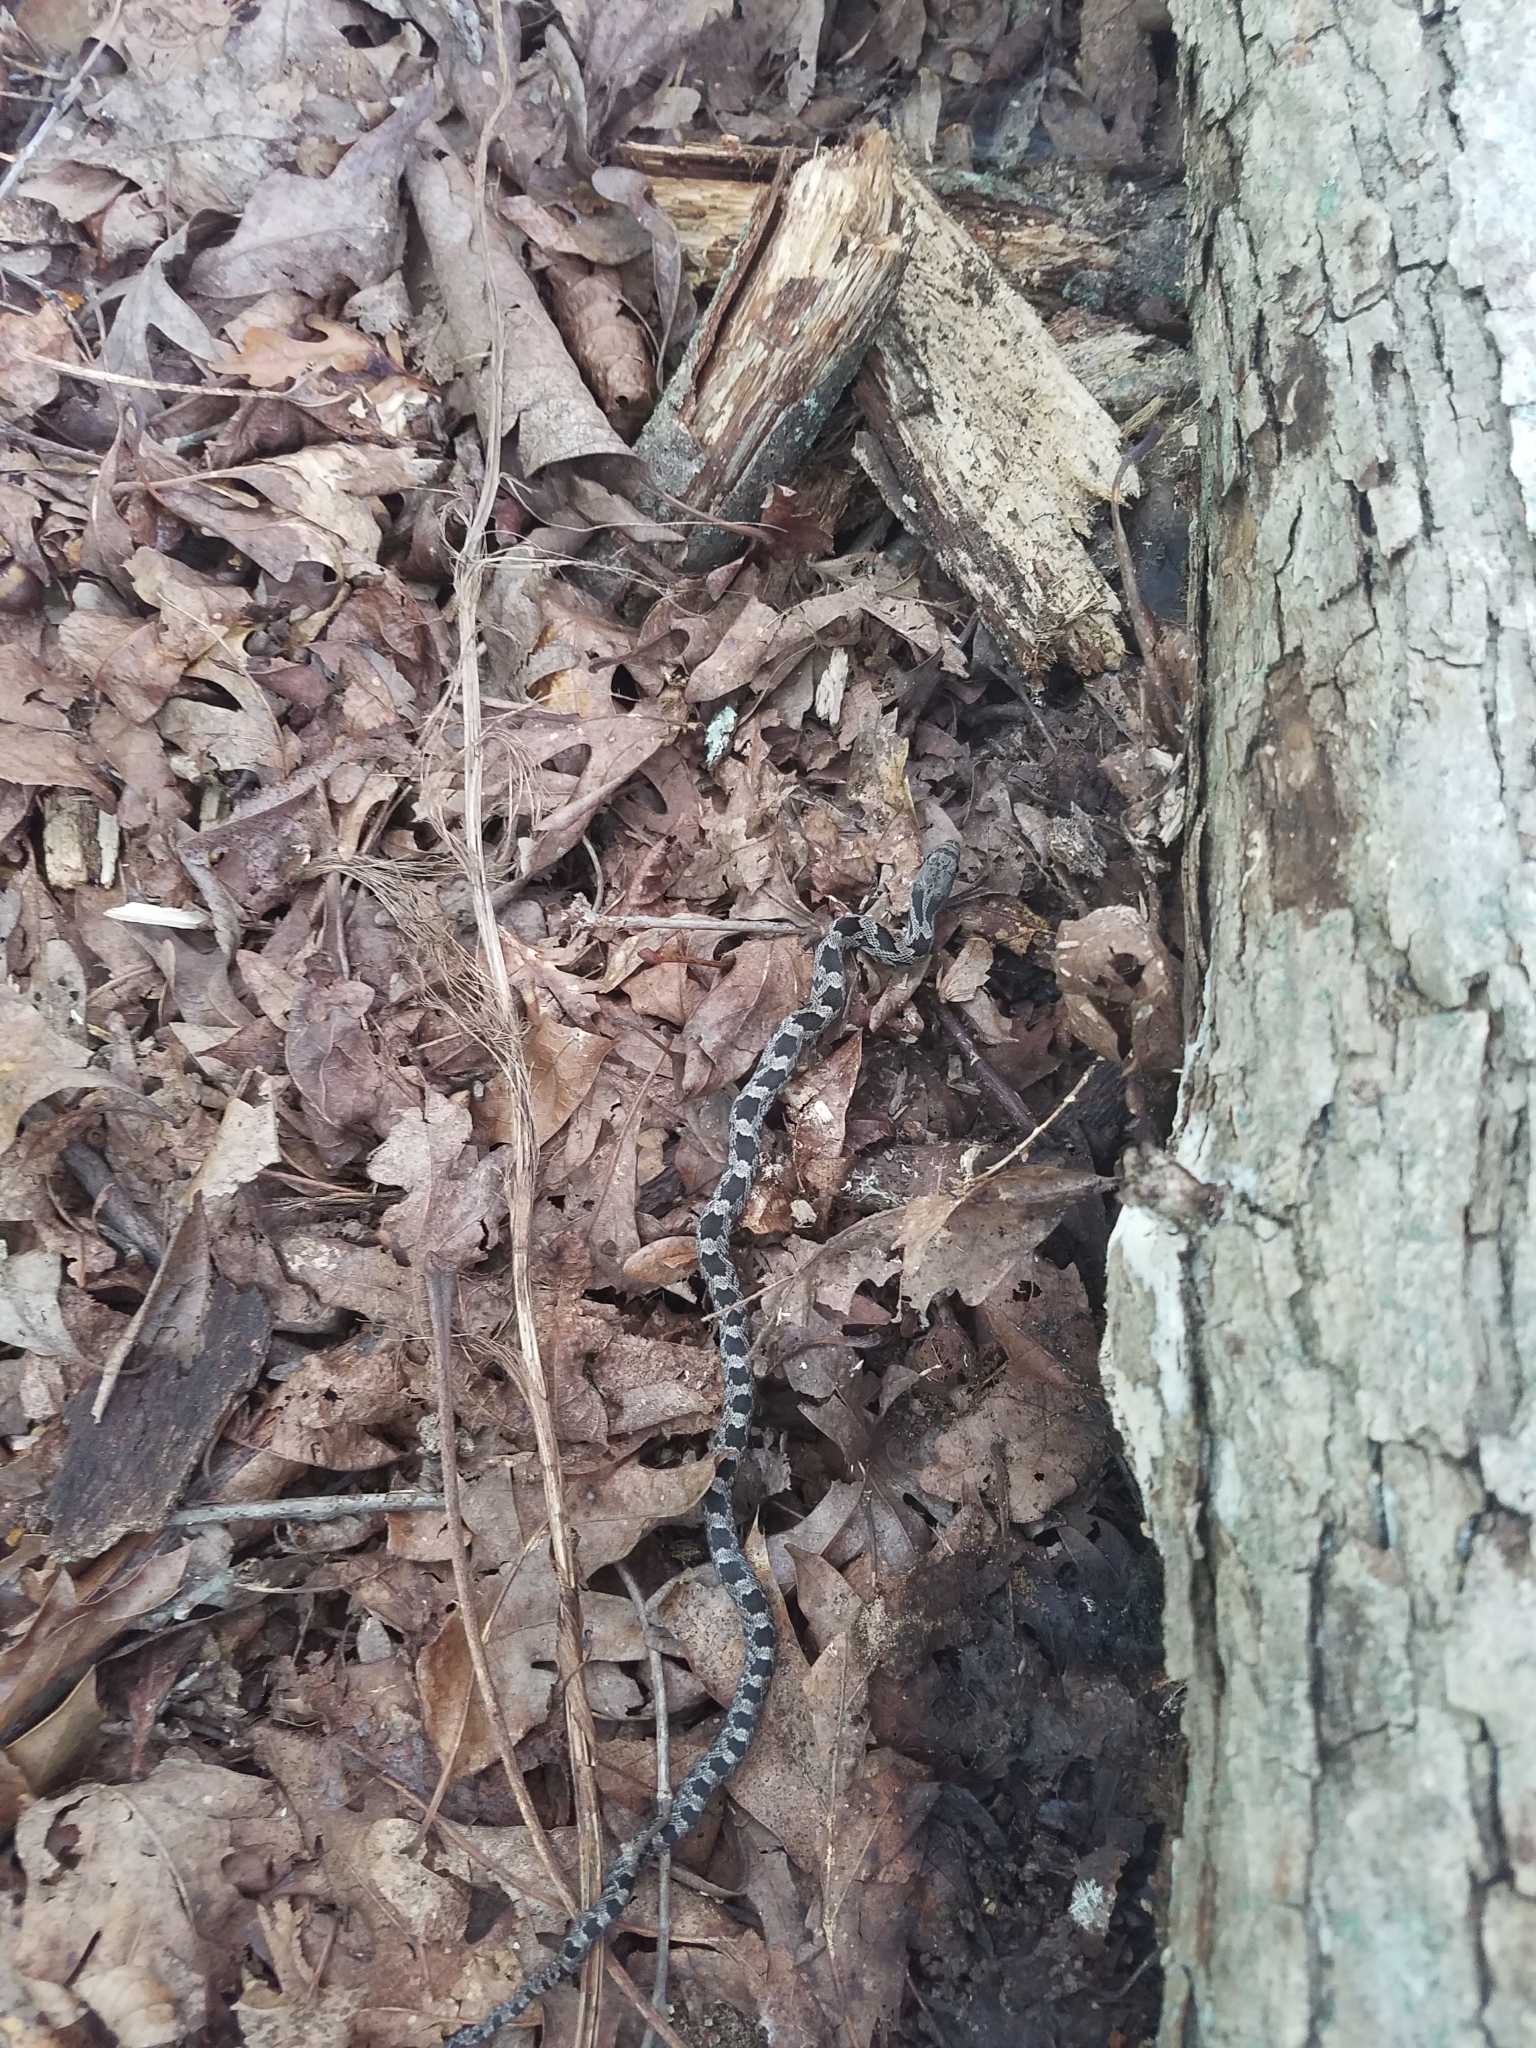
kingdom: Animalia
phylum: Chordata
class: Squamata
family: Colubridae
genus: Pantherophis
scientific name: Pantherophis alleghaniensis
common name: Eastern rat snake
